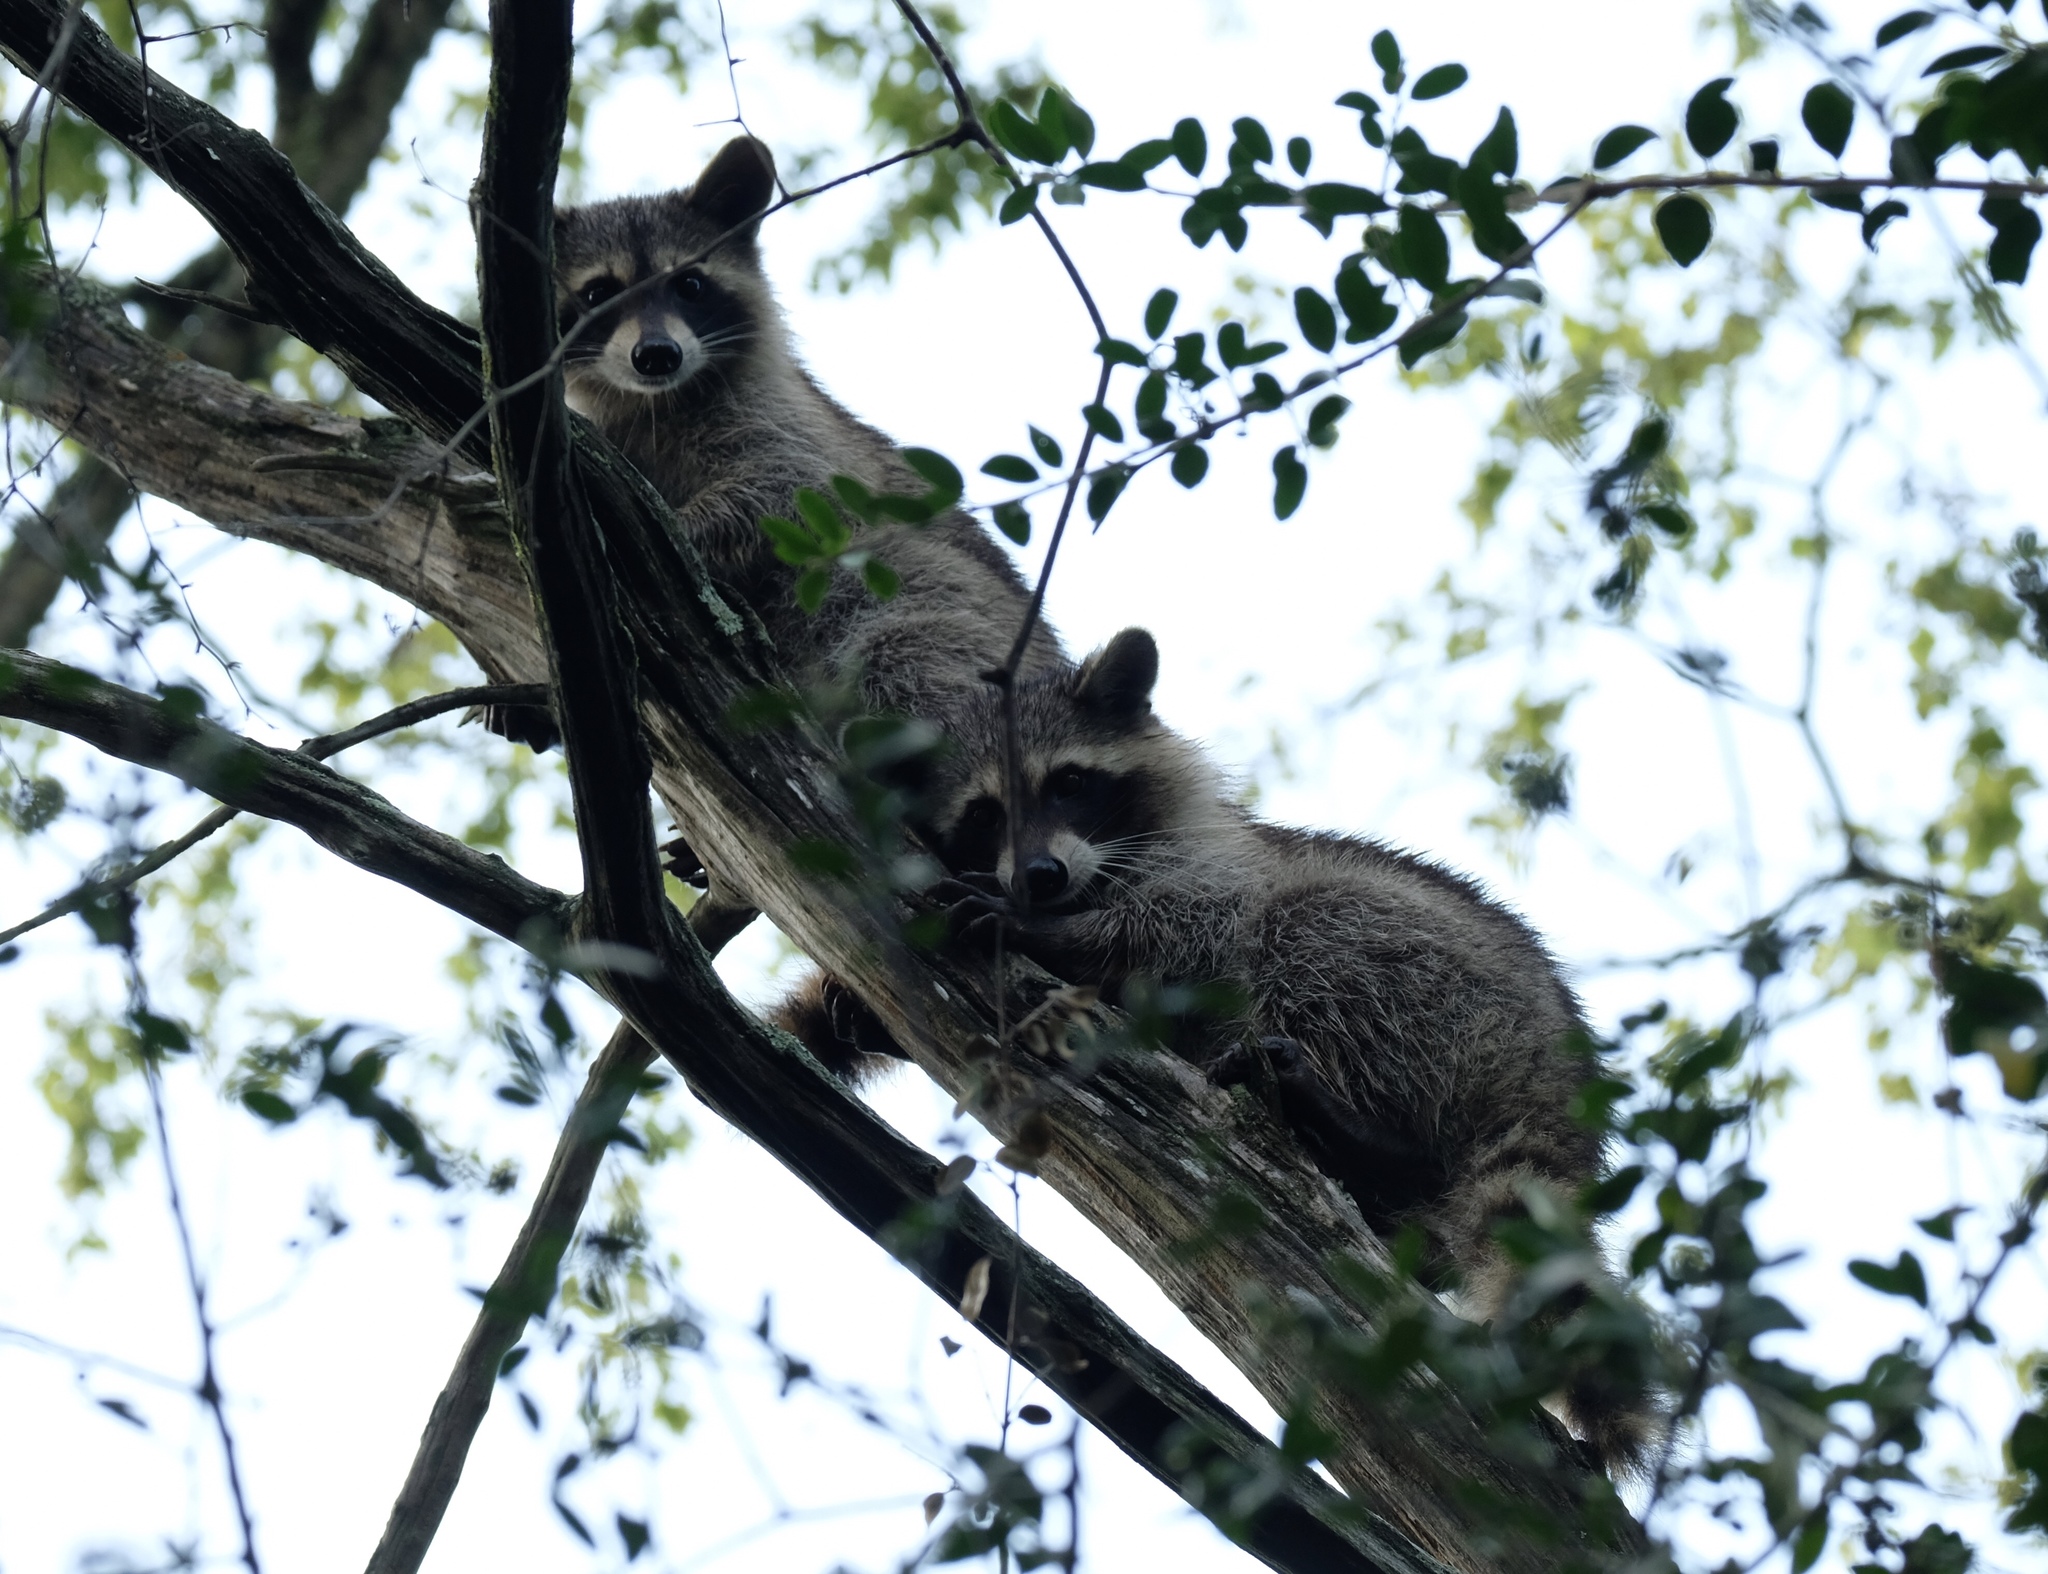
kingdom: Animalia
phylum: Chordata
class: Mammalia
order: Carnivora
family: Procyonidae
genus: Procyon
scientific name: Procyon lotor
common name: Raccoon
